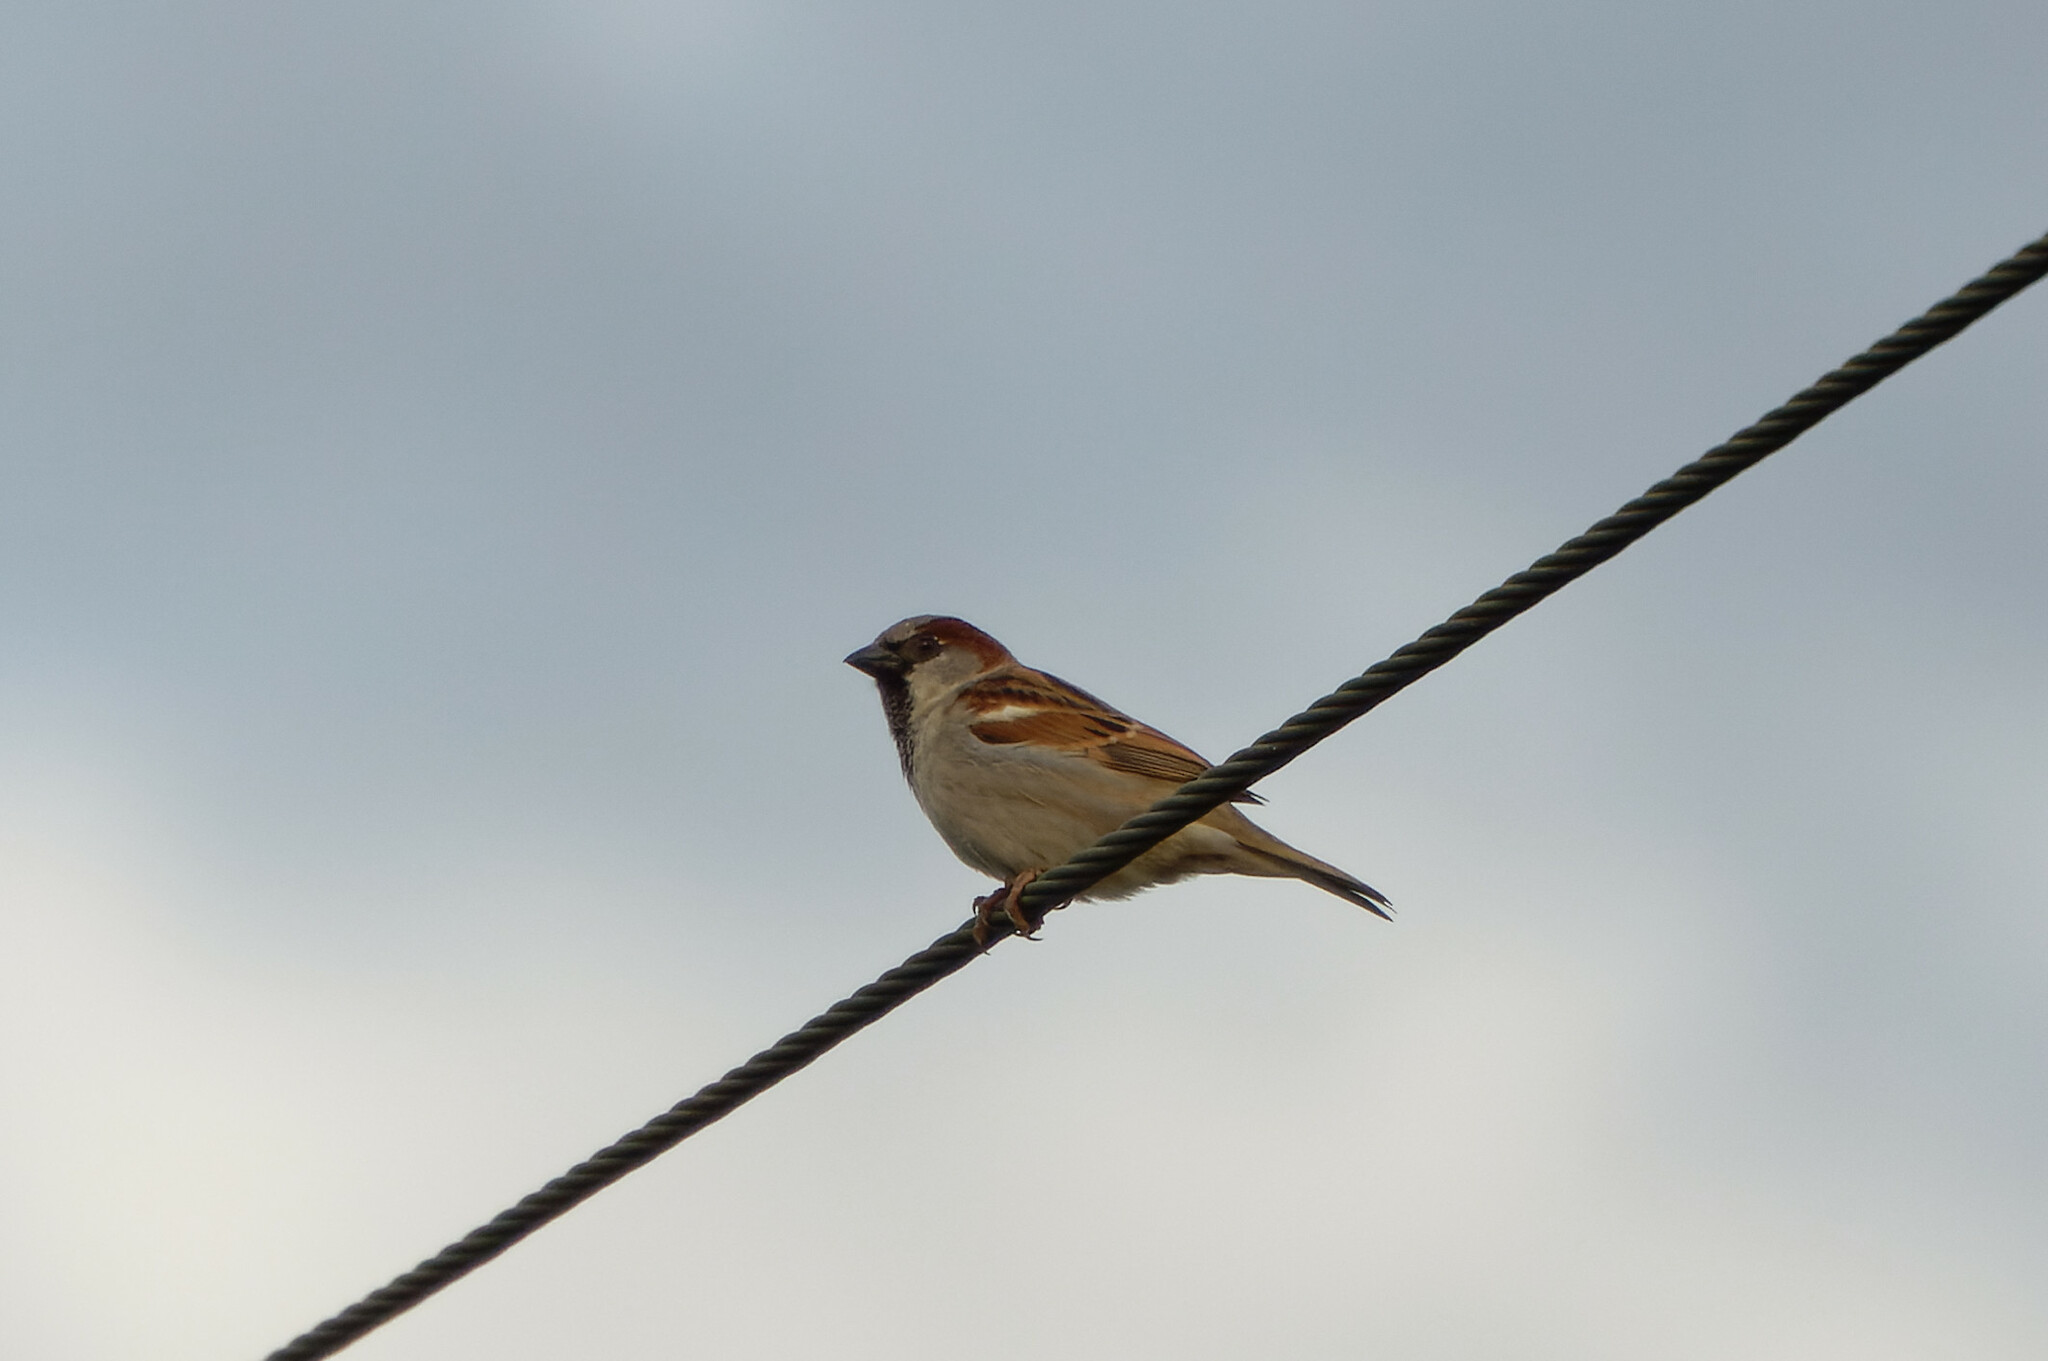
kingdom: Animalia
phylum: Chordata
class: Aves
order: Passeriformes
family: Passeridae
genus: Passer
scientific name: Passer domesticus
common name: House sparrow
